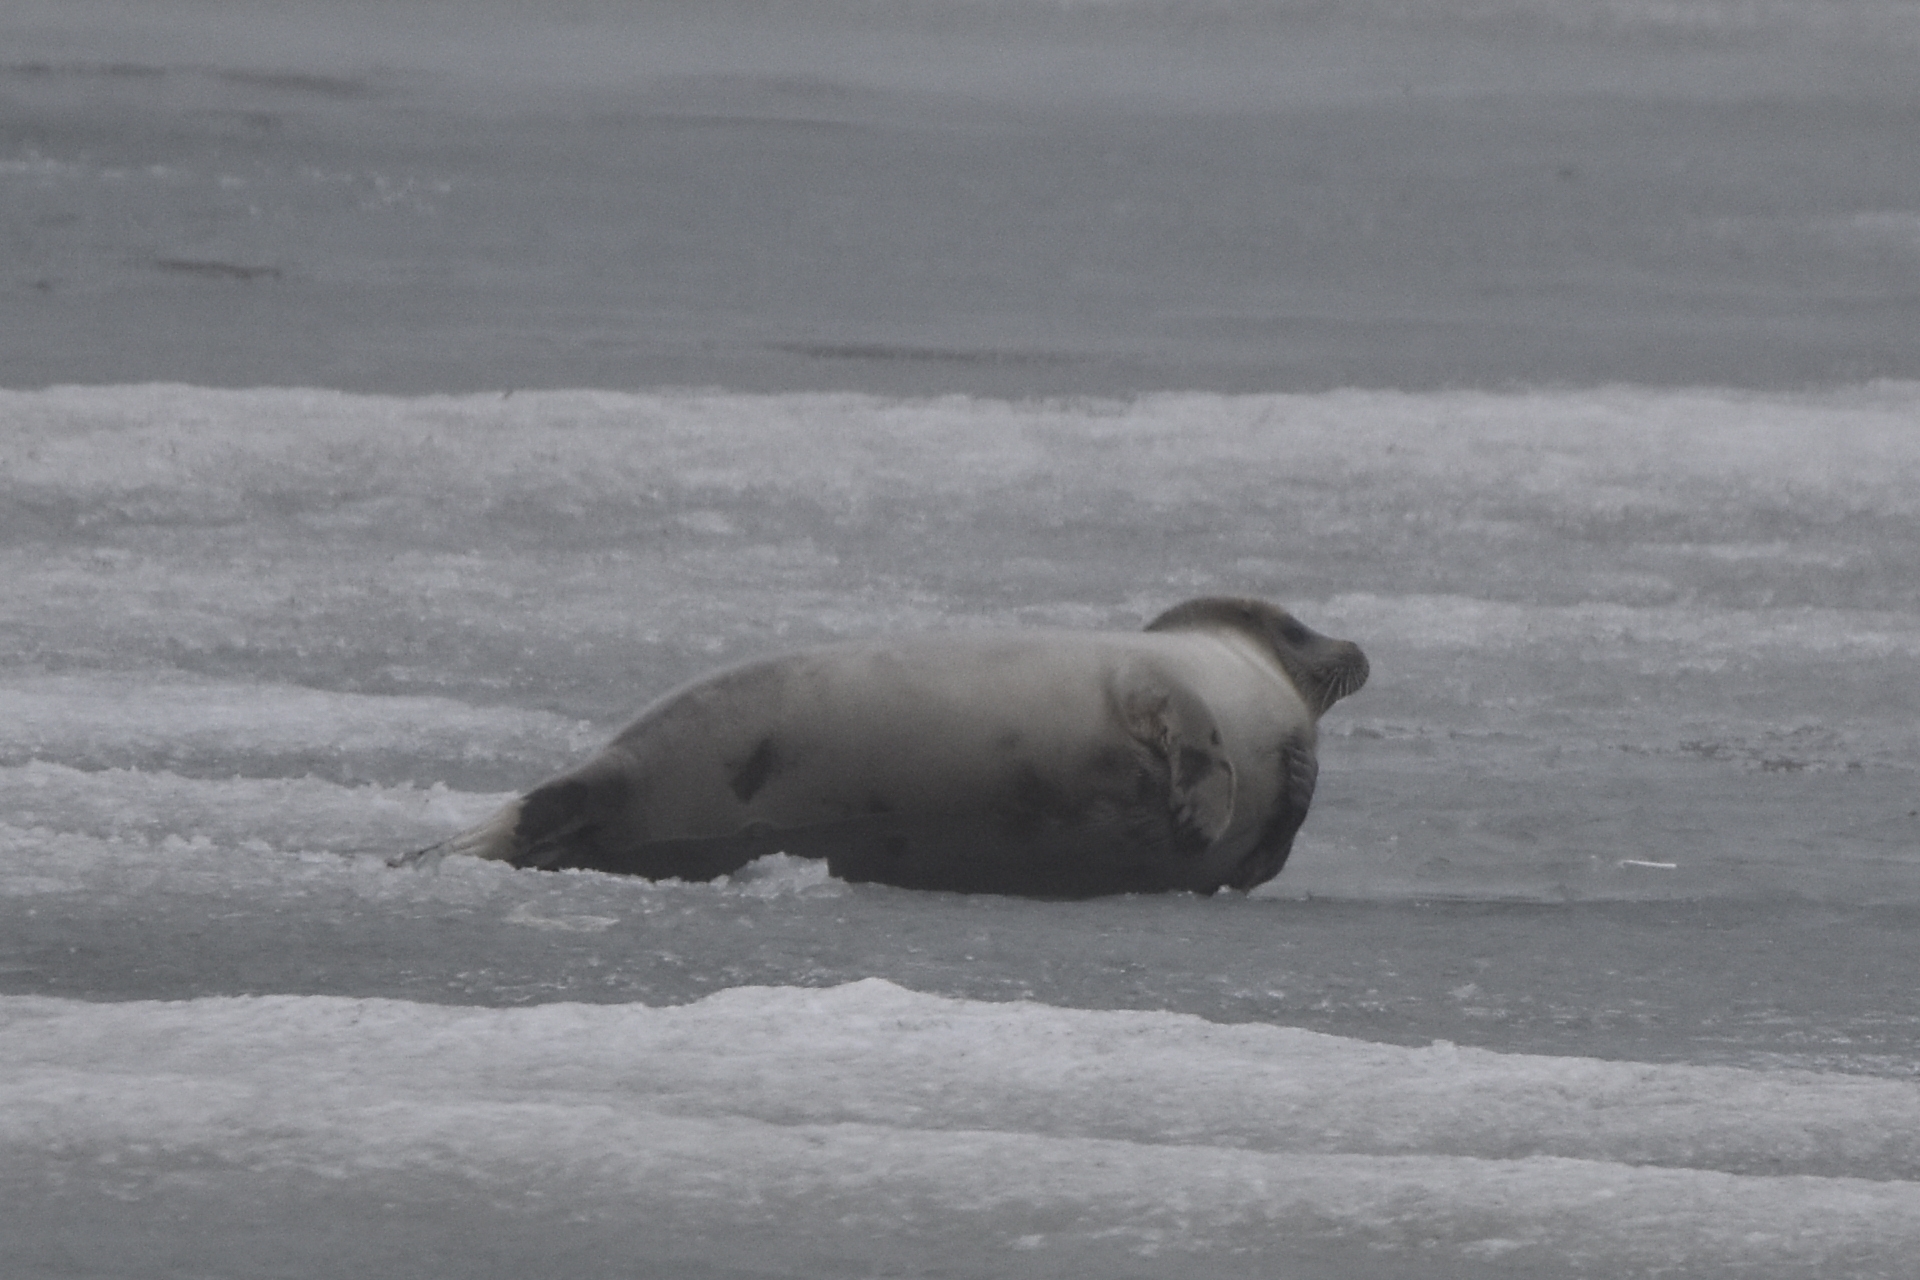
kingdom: Animalia
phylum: Chordata
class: Mammalia
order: Carnivora
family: Phocidae
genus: Pusa
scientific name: Pusa hispida
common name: Ringed seal
